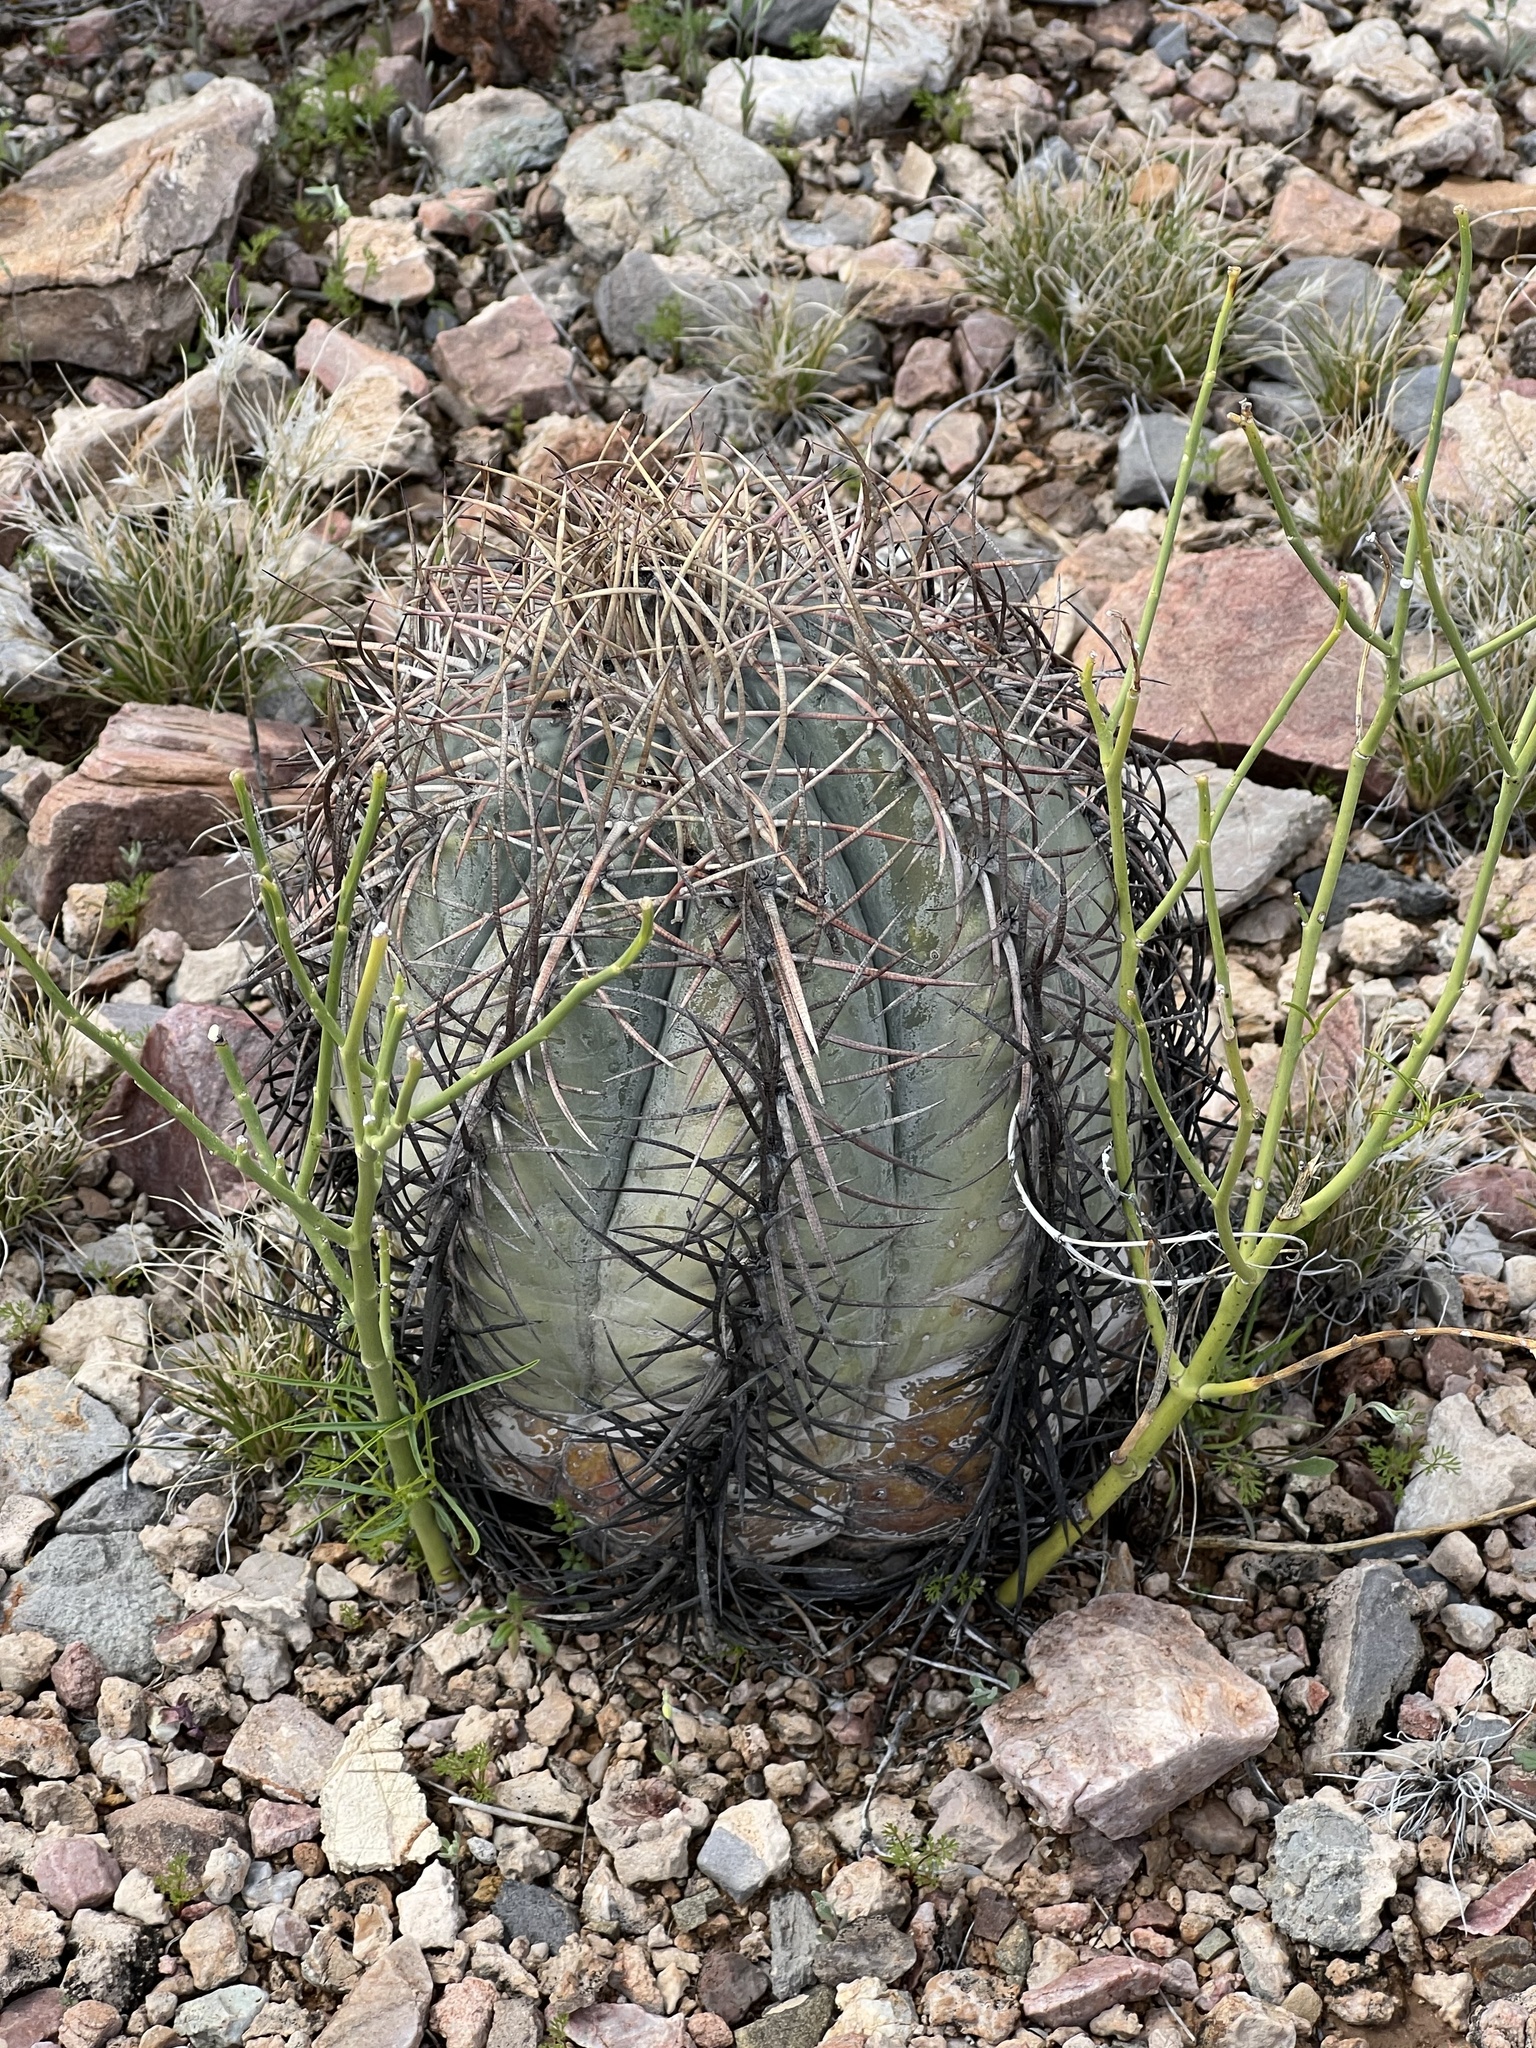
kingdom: Plantae
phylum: Tracheophyta
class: Magnoliopsida
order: Caryophyllales
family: Cactaceae
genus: Echinocactus
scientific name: Echinocactus horizonthalonius
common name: Devilshead
